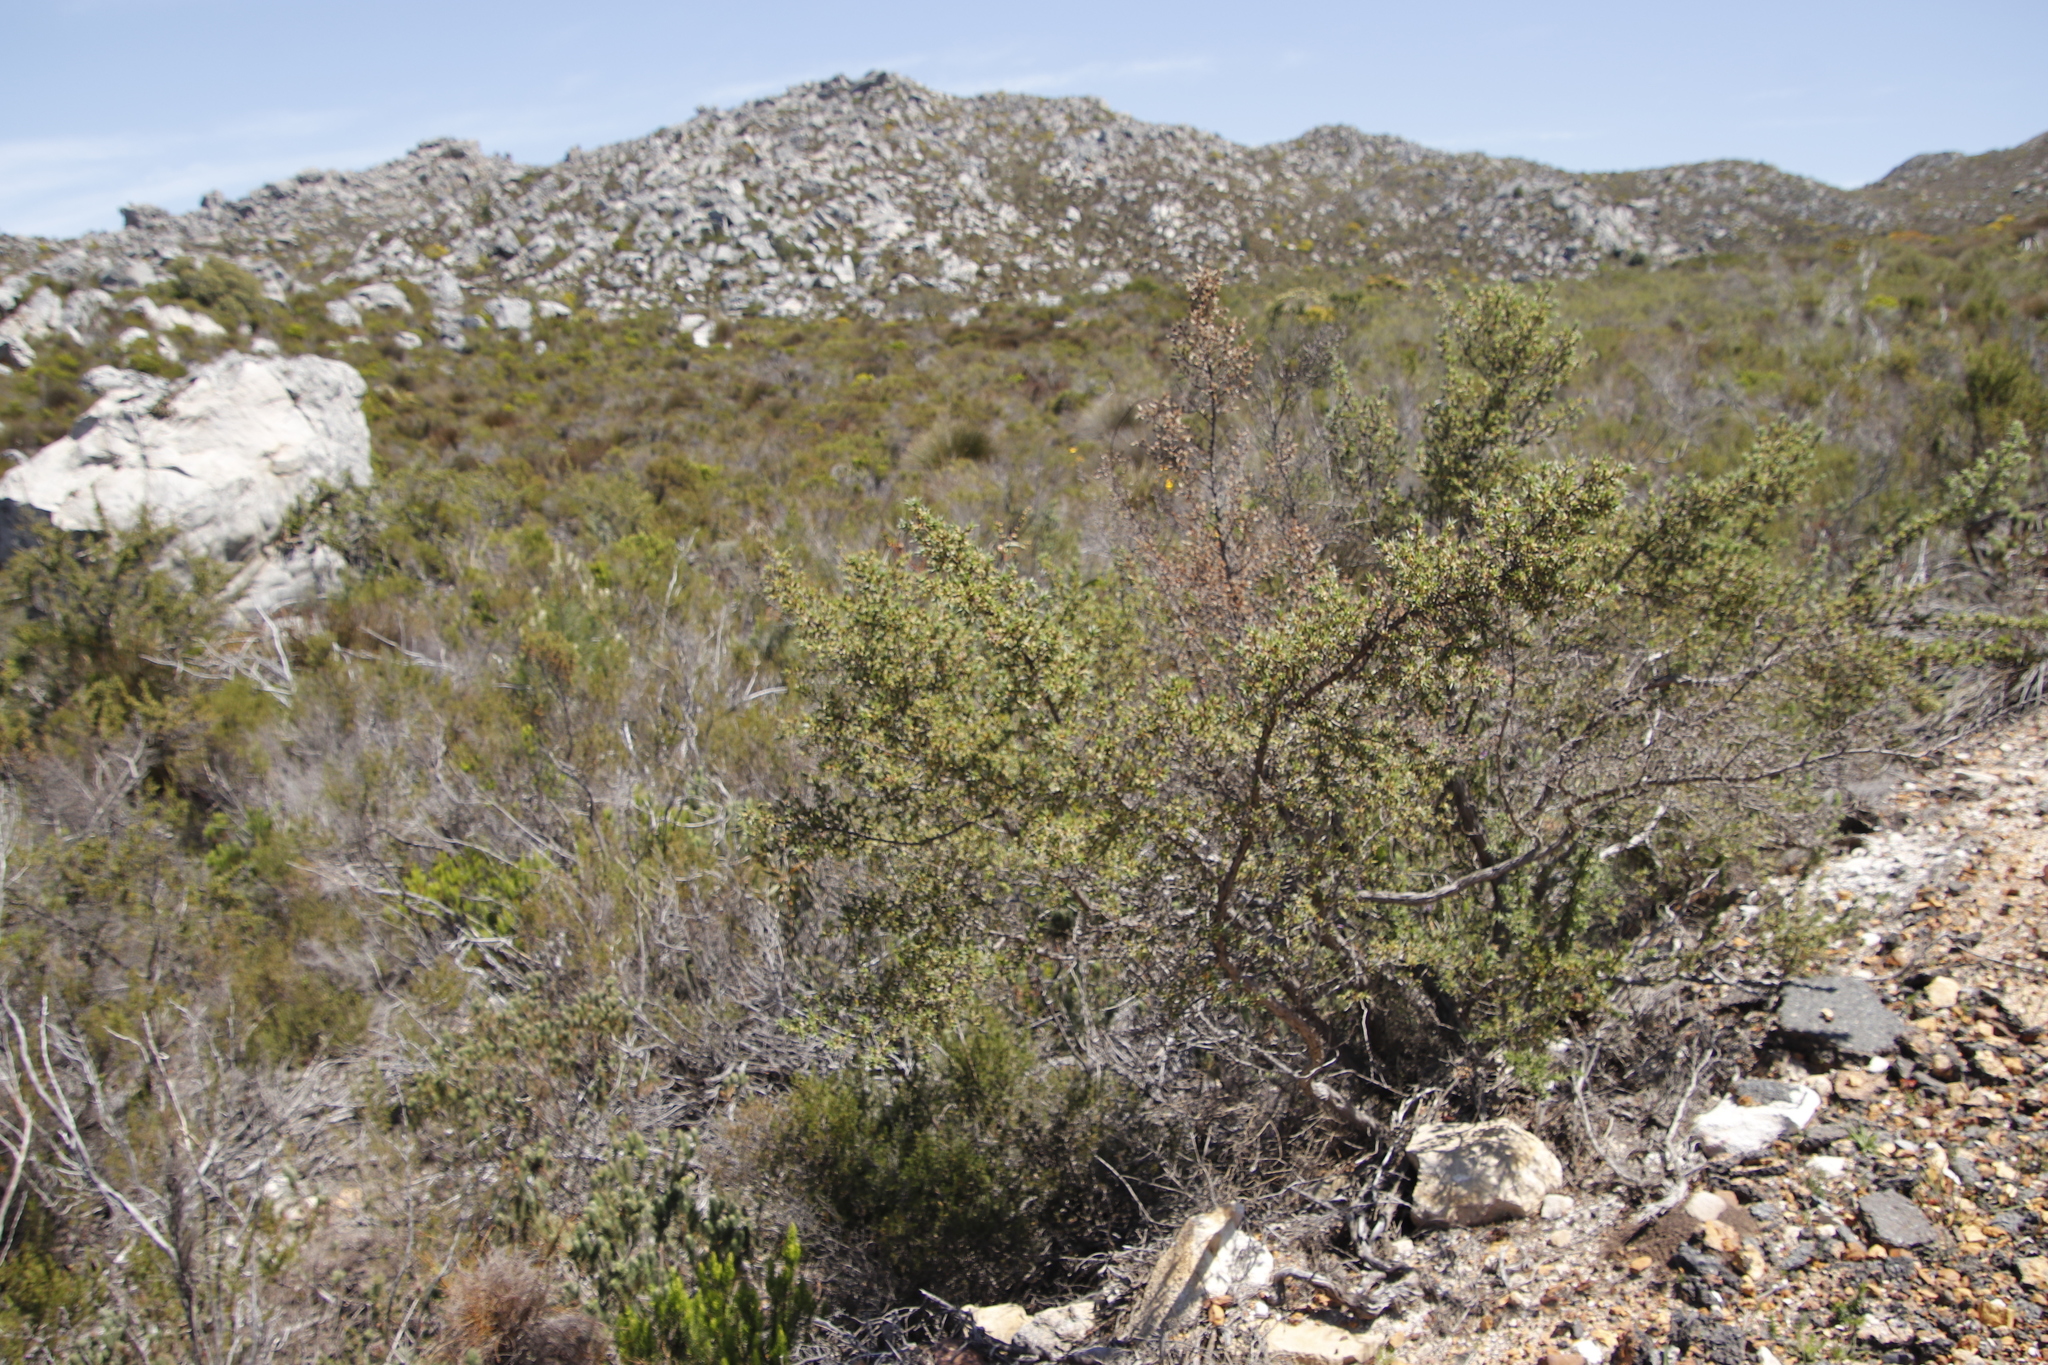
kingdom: Plantae
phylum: Tracheophyta
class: Magnoliopsida
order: Rosales
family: Rosaceae
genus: Cliffortia
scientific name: Cliffortia ruscifolia
